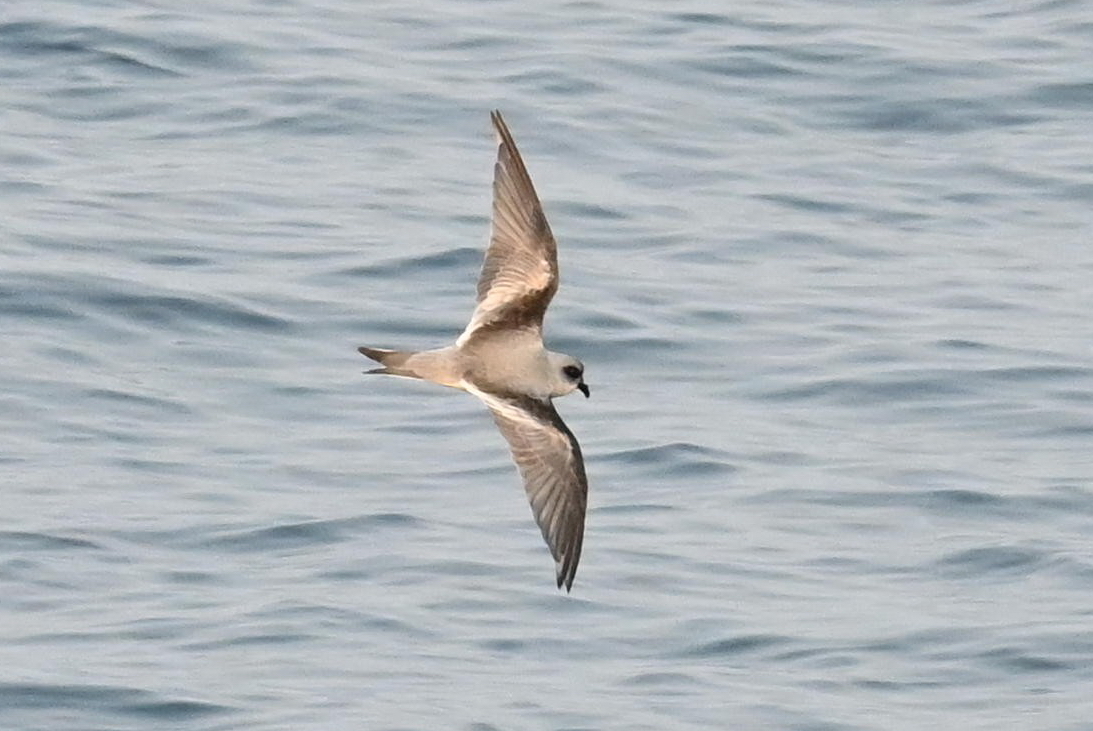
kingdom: Animalia
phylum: Chordata
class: Aves
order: Procellariiformes
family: Hydrobatidae
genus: Oceanodroma
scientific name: Oceanodroma furcata
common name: Fork-tailed storm-petrel
